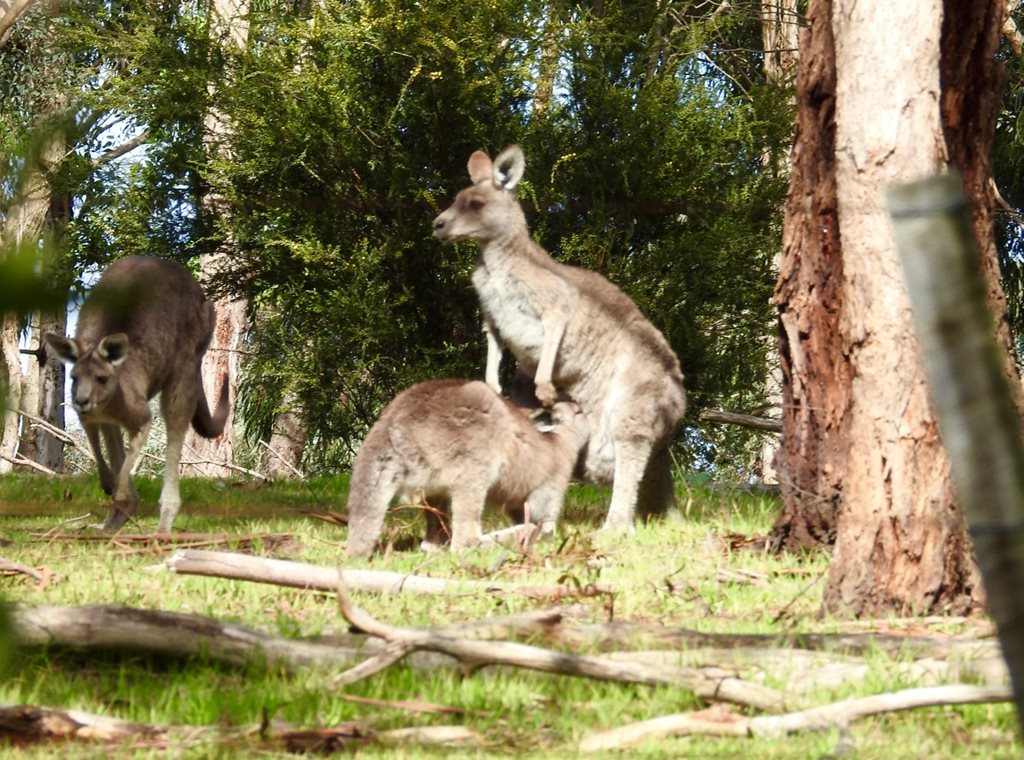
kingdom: Animalia
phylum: Chordata
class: Mammalia
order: Diprotodontia
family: Macropodidae
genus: Macropus
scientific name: Macropus giganteus
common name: Eastern grey kangaroo
